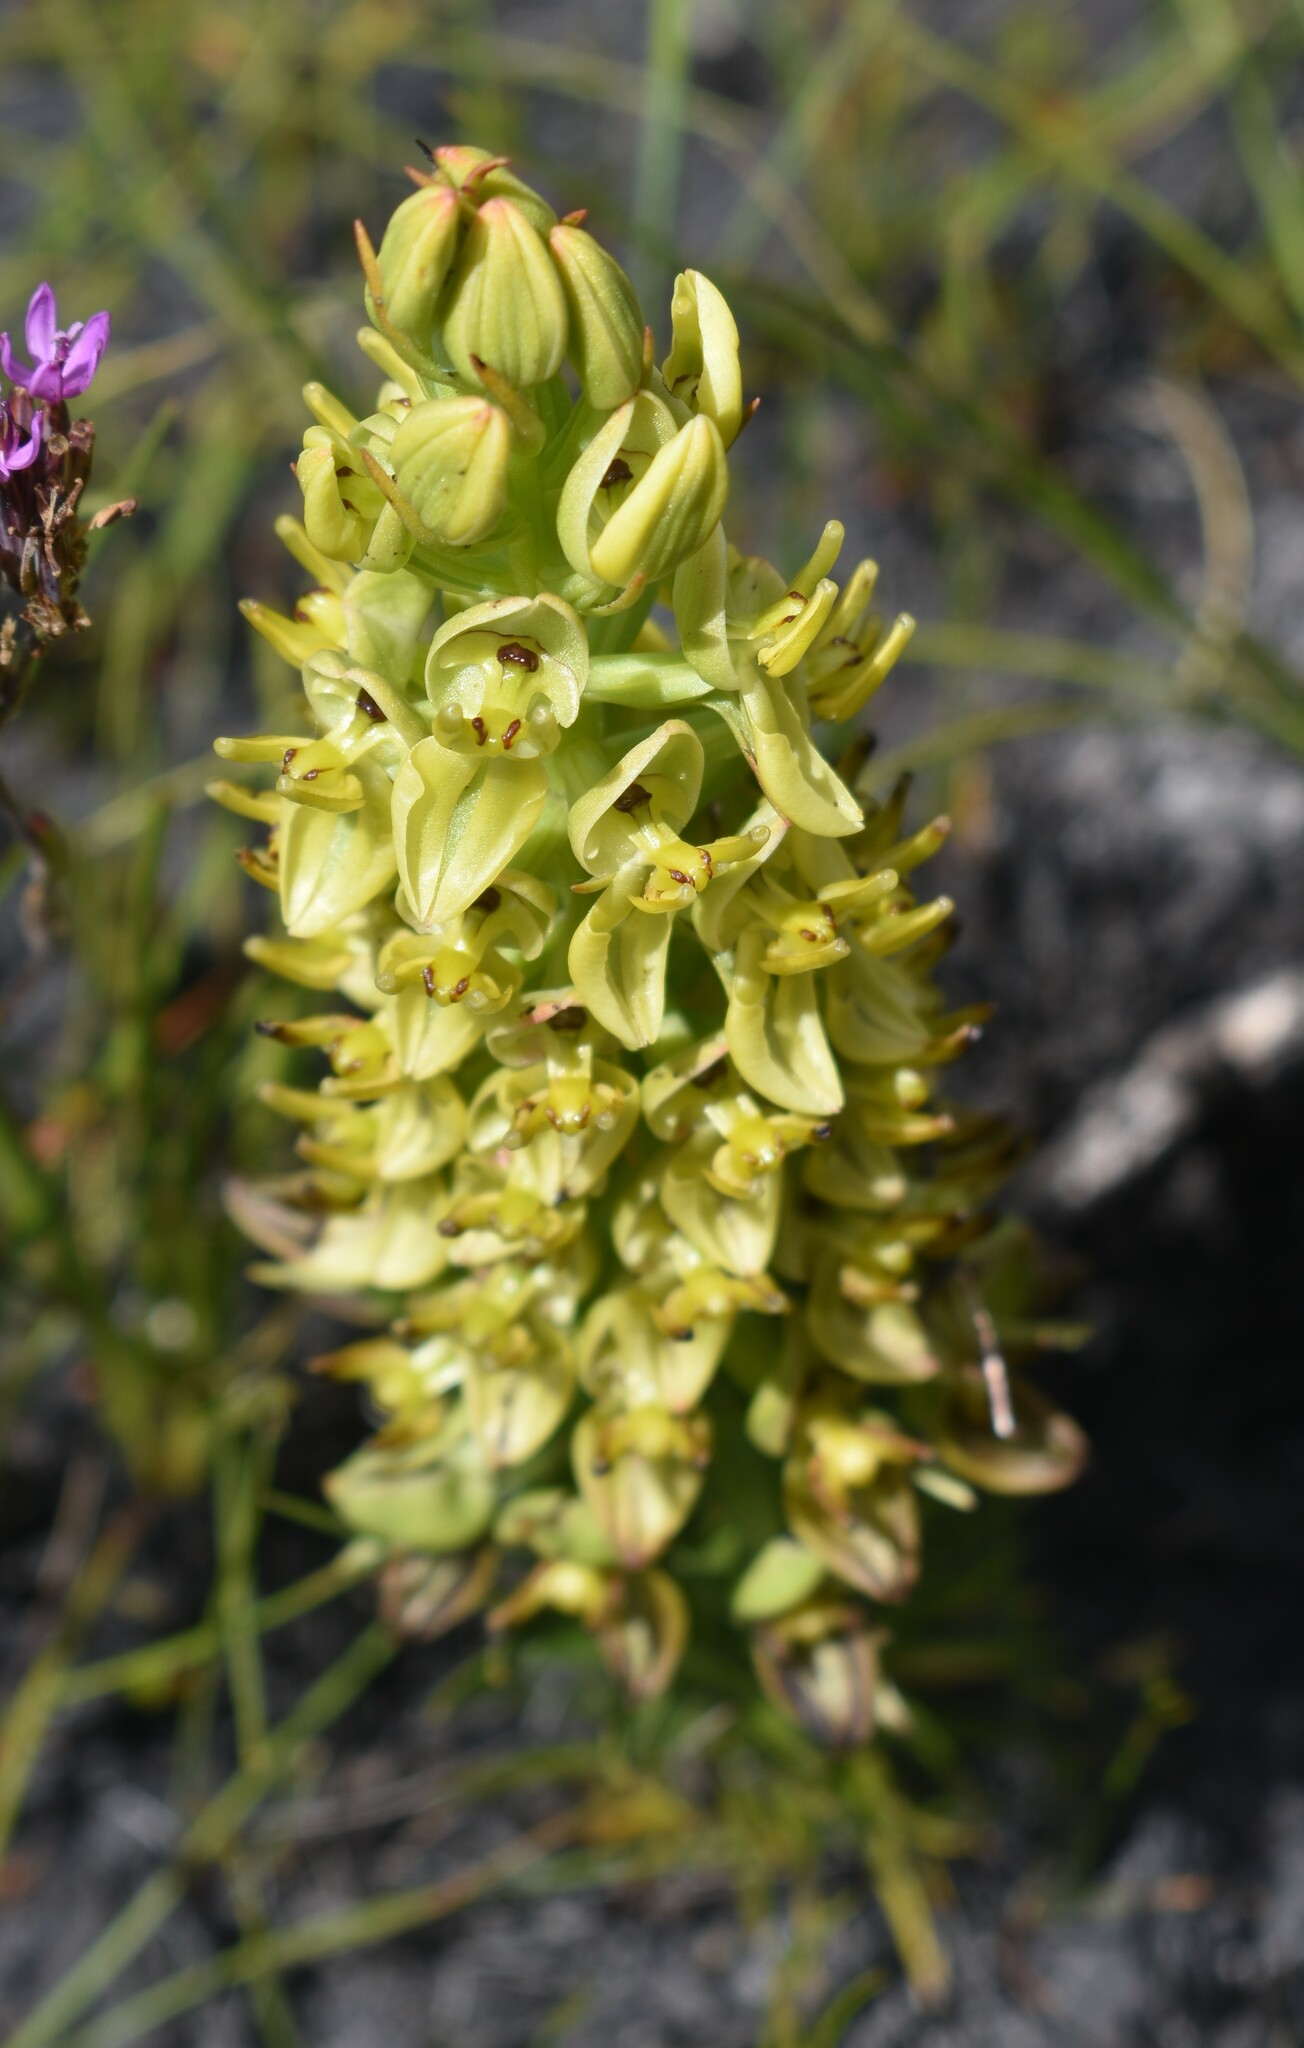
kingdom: Plantae
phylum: Tracheophyta
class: Liliopsida
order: Asparagales
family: Orchidaceae
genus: Ceratandra
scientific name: Ceratandra atrata
